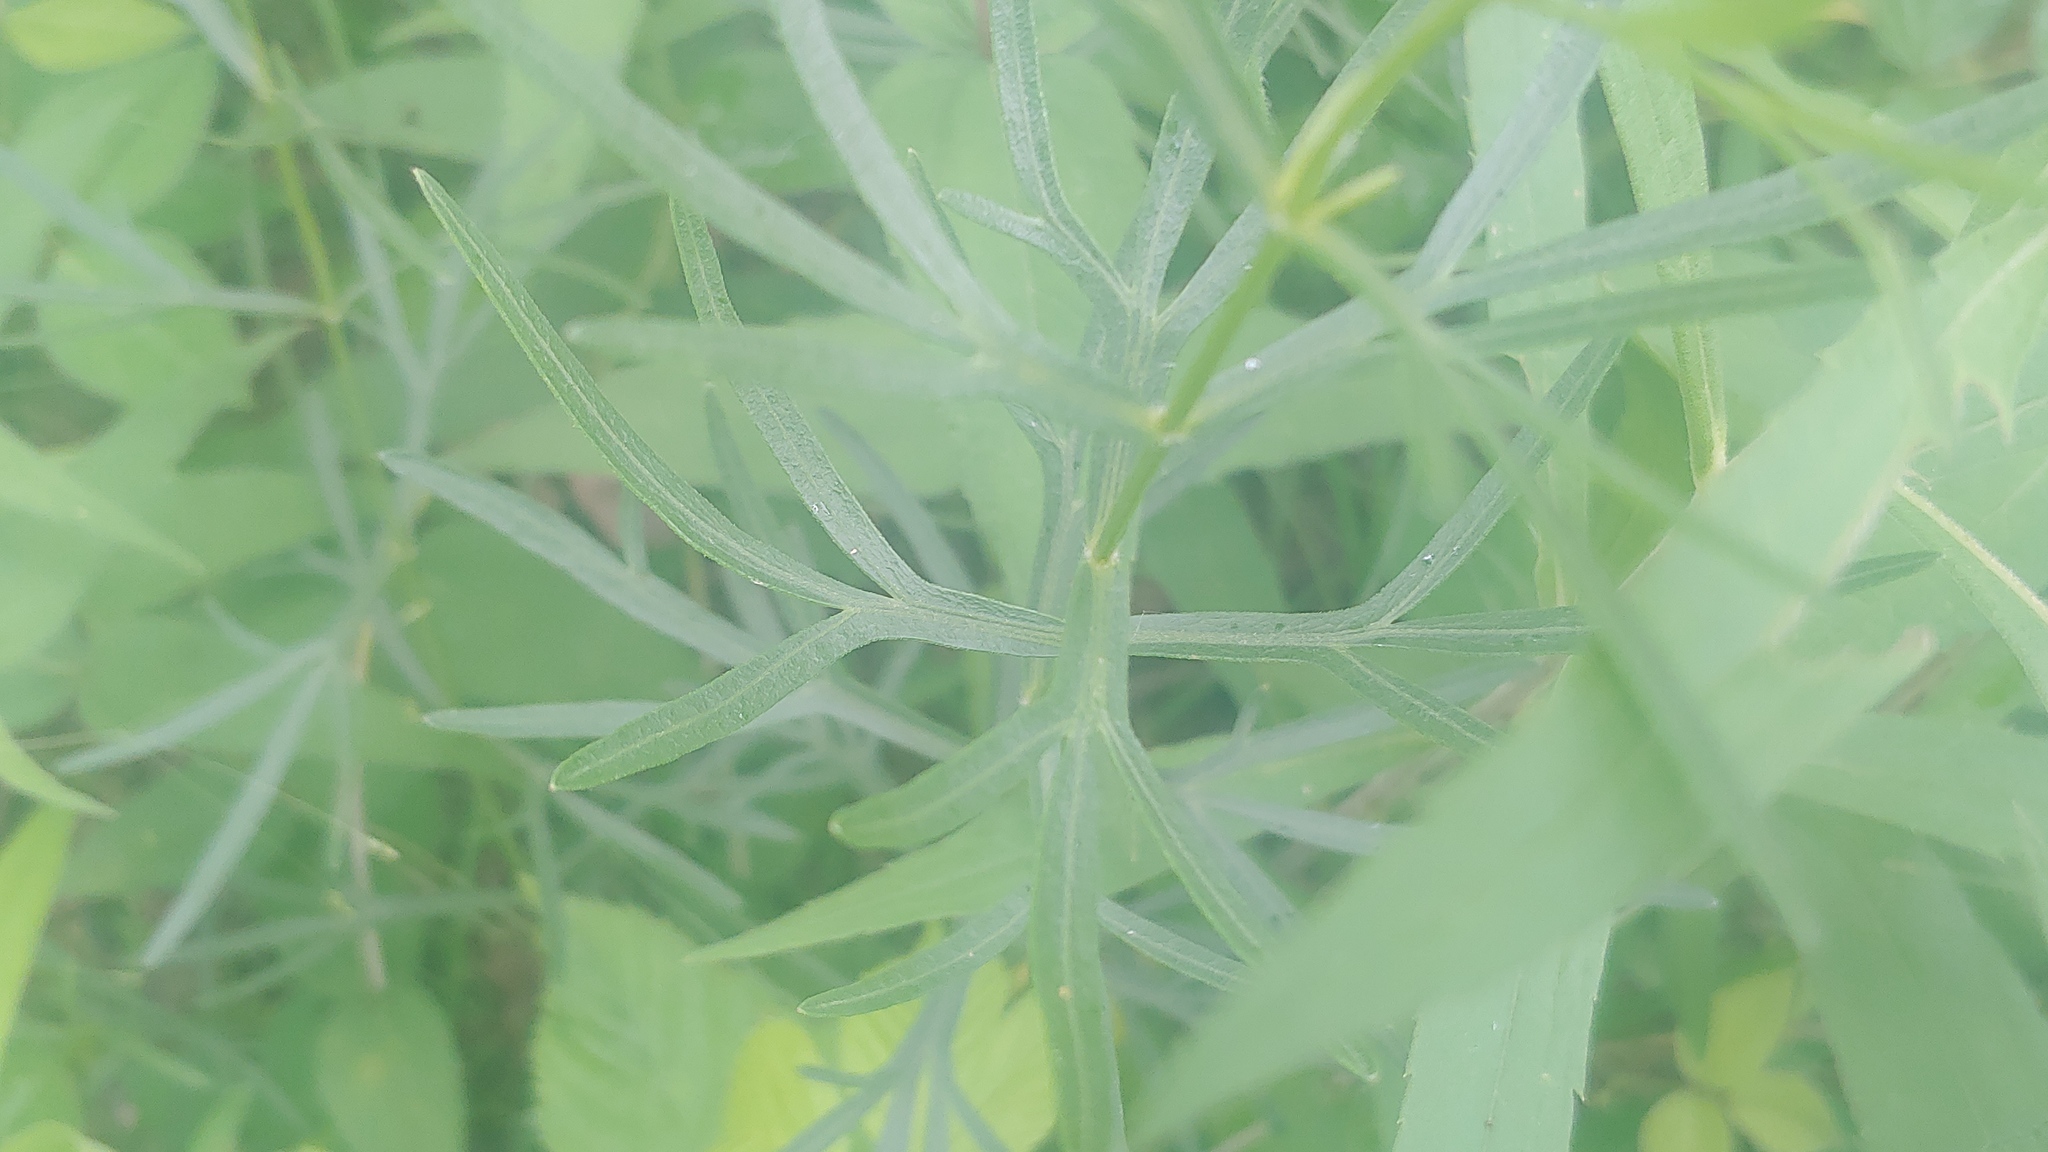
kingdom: Plantae
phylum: Tracheophyta
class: Magnoliopsida
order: Asterales
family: Asteraceae
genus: Coreopsis
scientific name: Coreopsis palmata
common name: Prairie coreopsis
